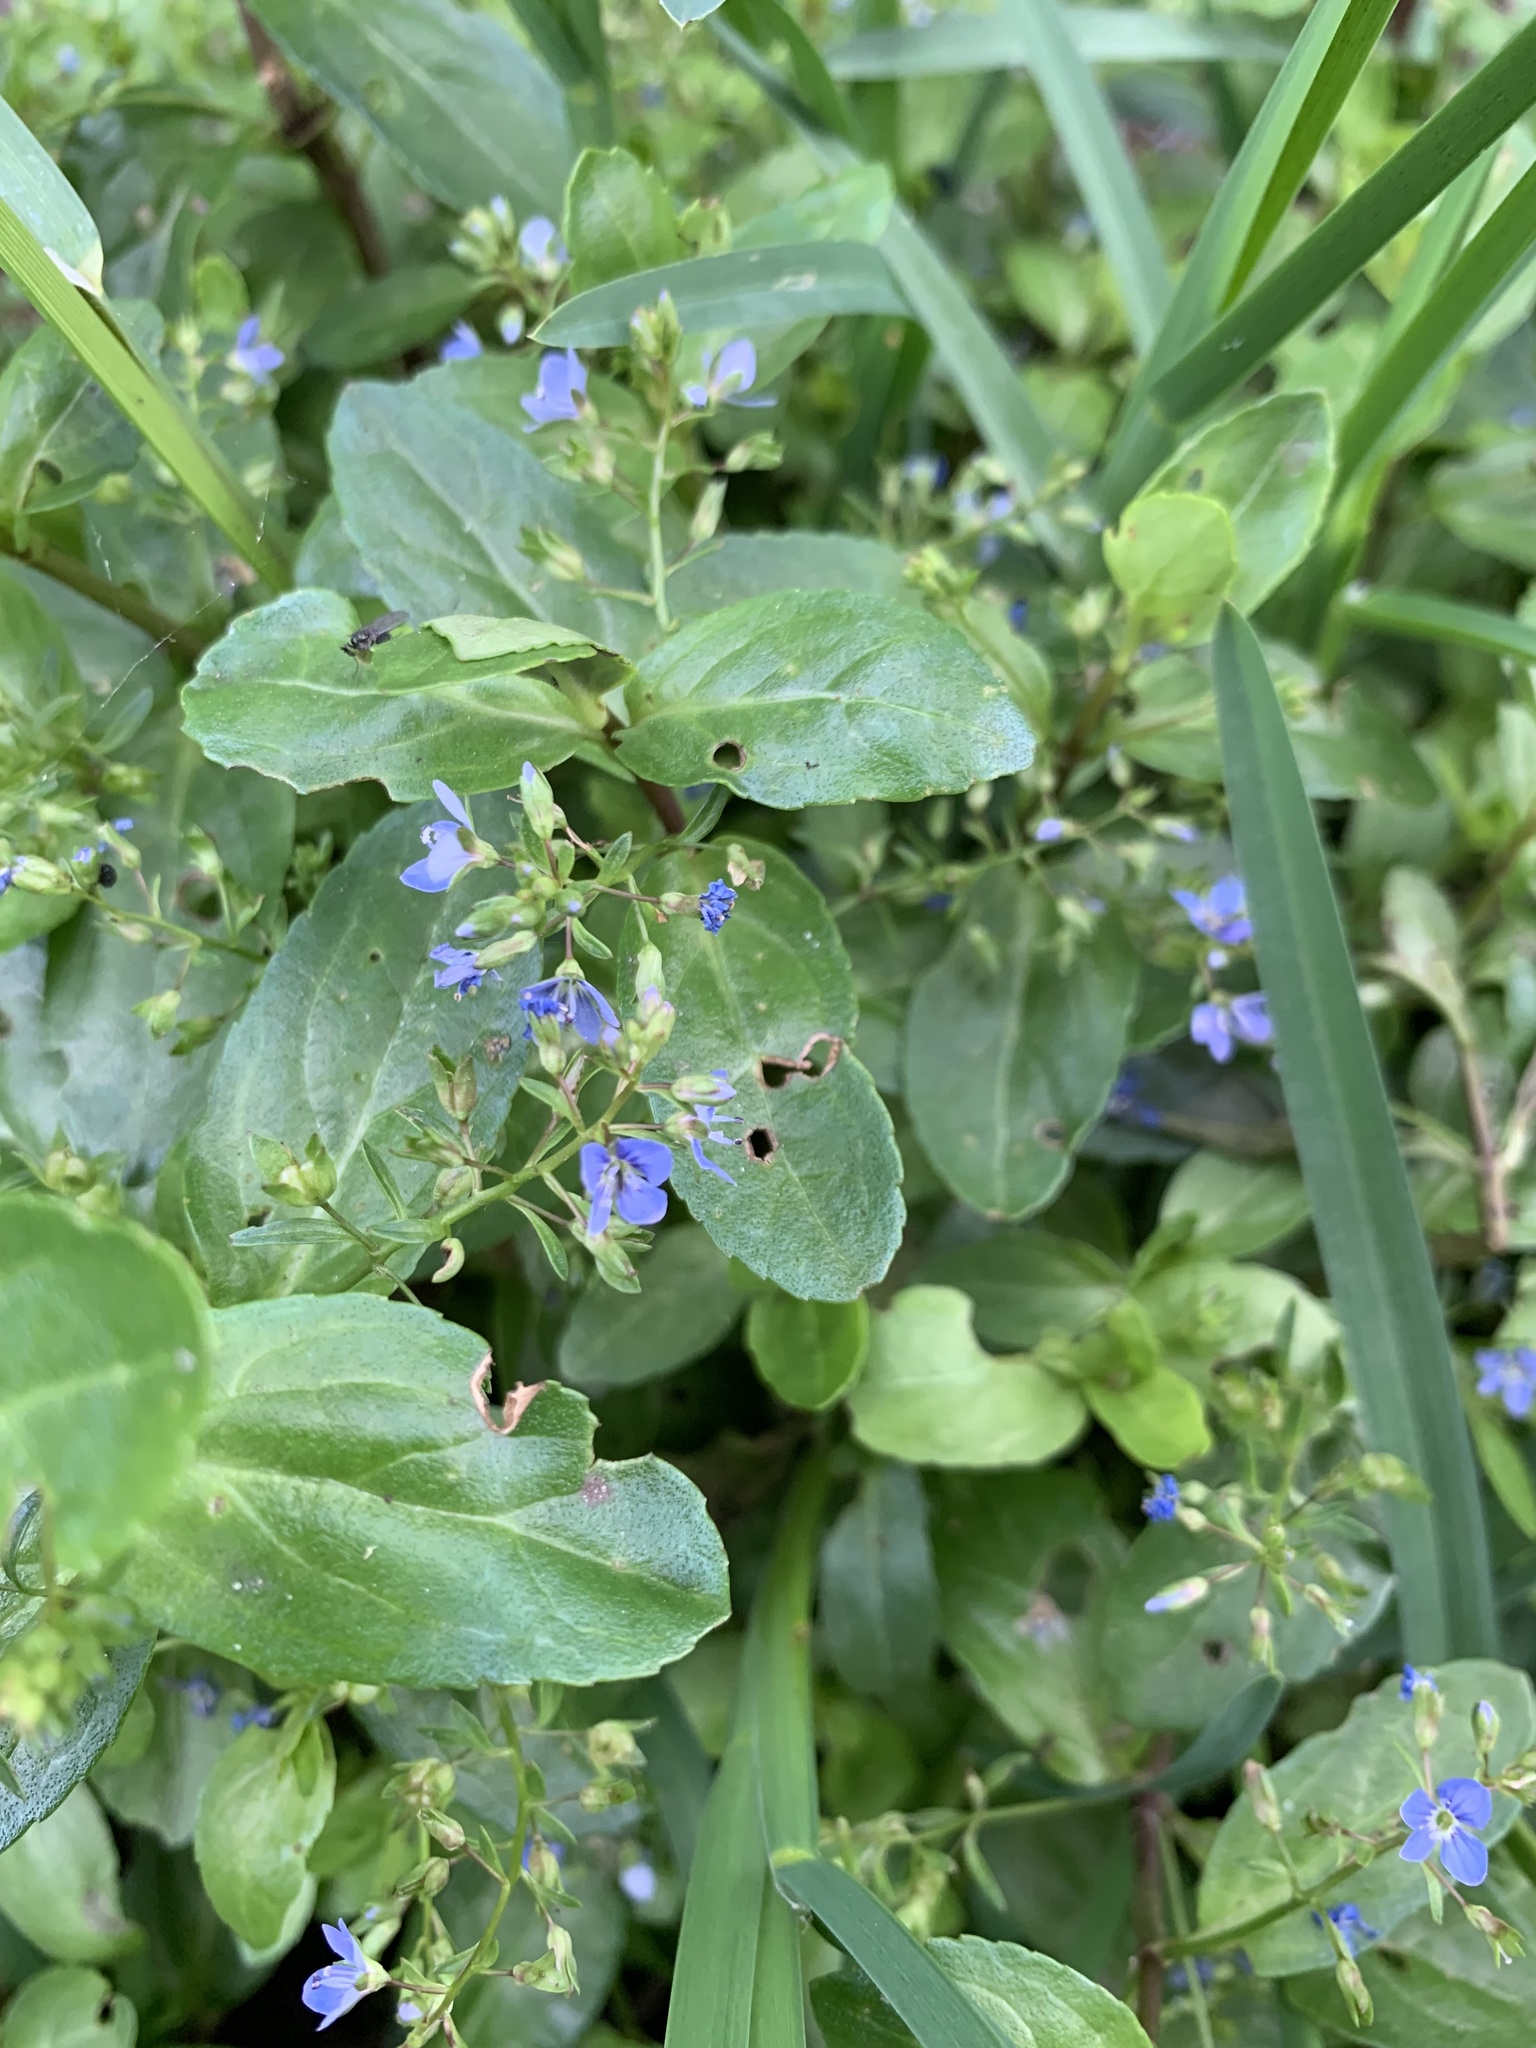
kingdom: Plantae
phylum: Tracheophyta
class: Magnoliopsida
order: Lamiales
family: Plantaginaceae
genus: Veronica
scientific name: Veronica beccabunga
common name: Brooklime
